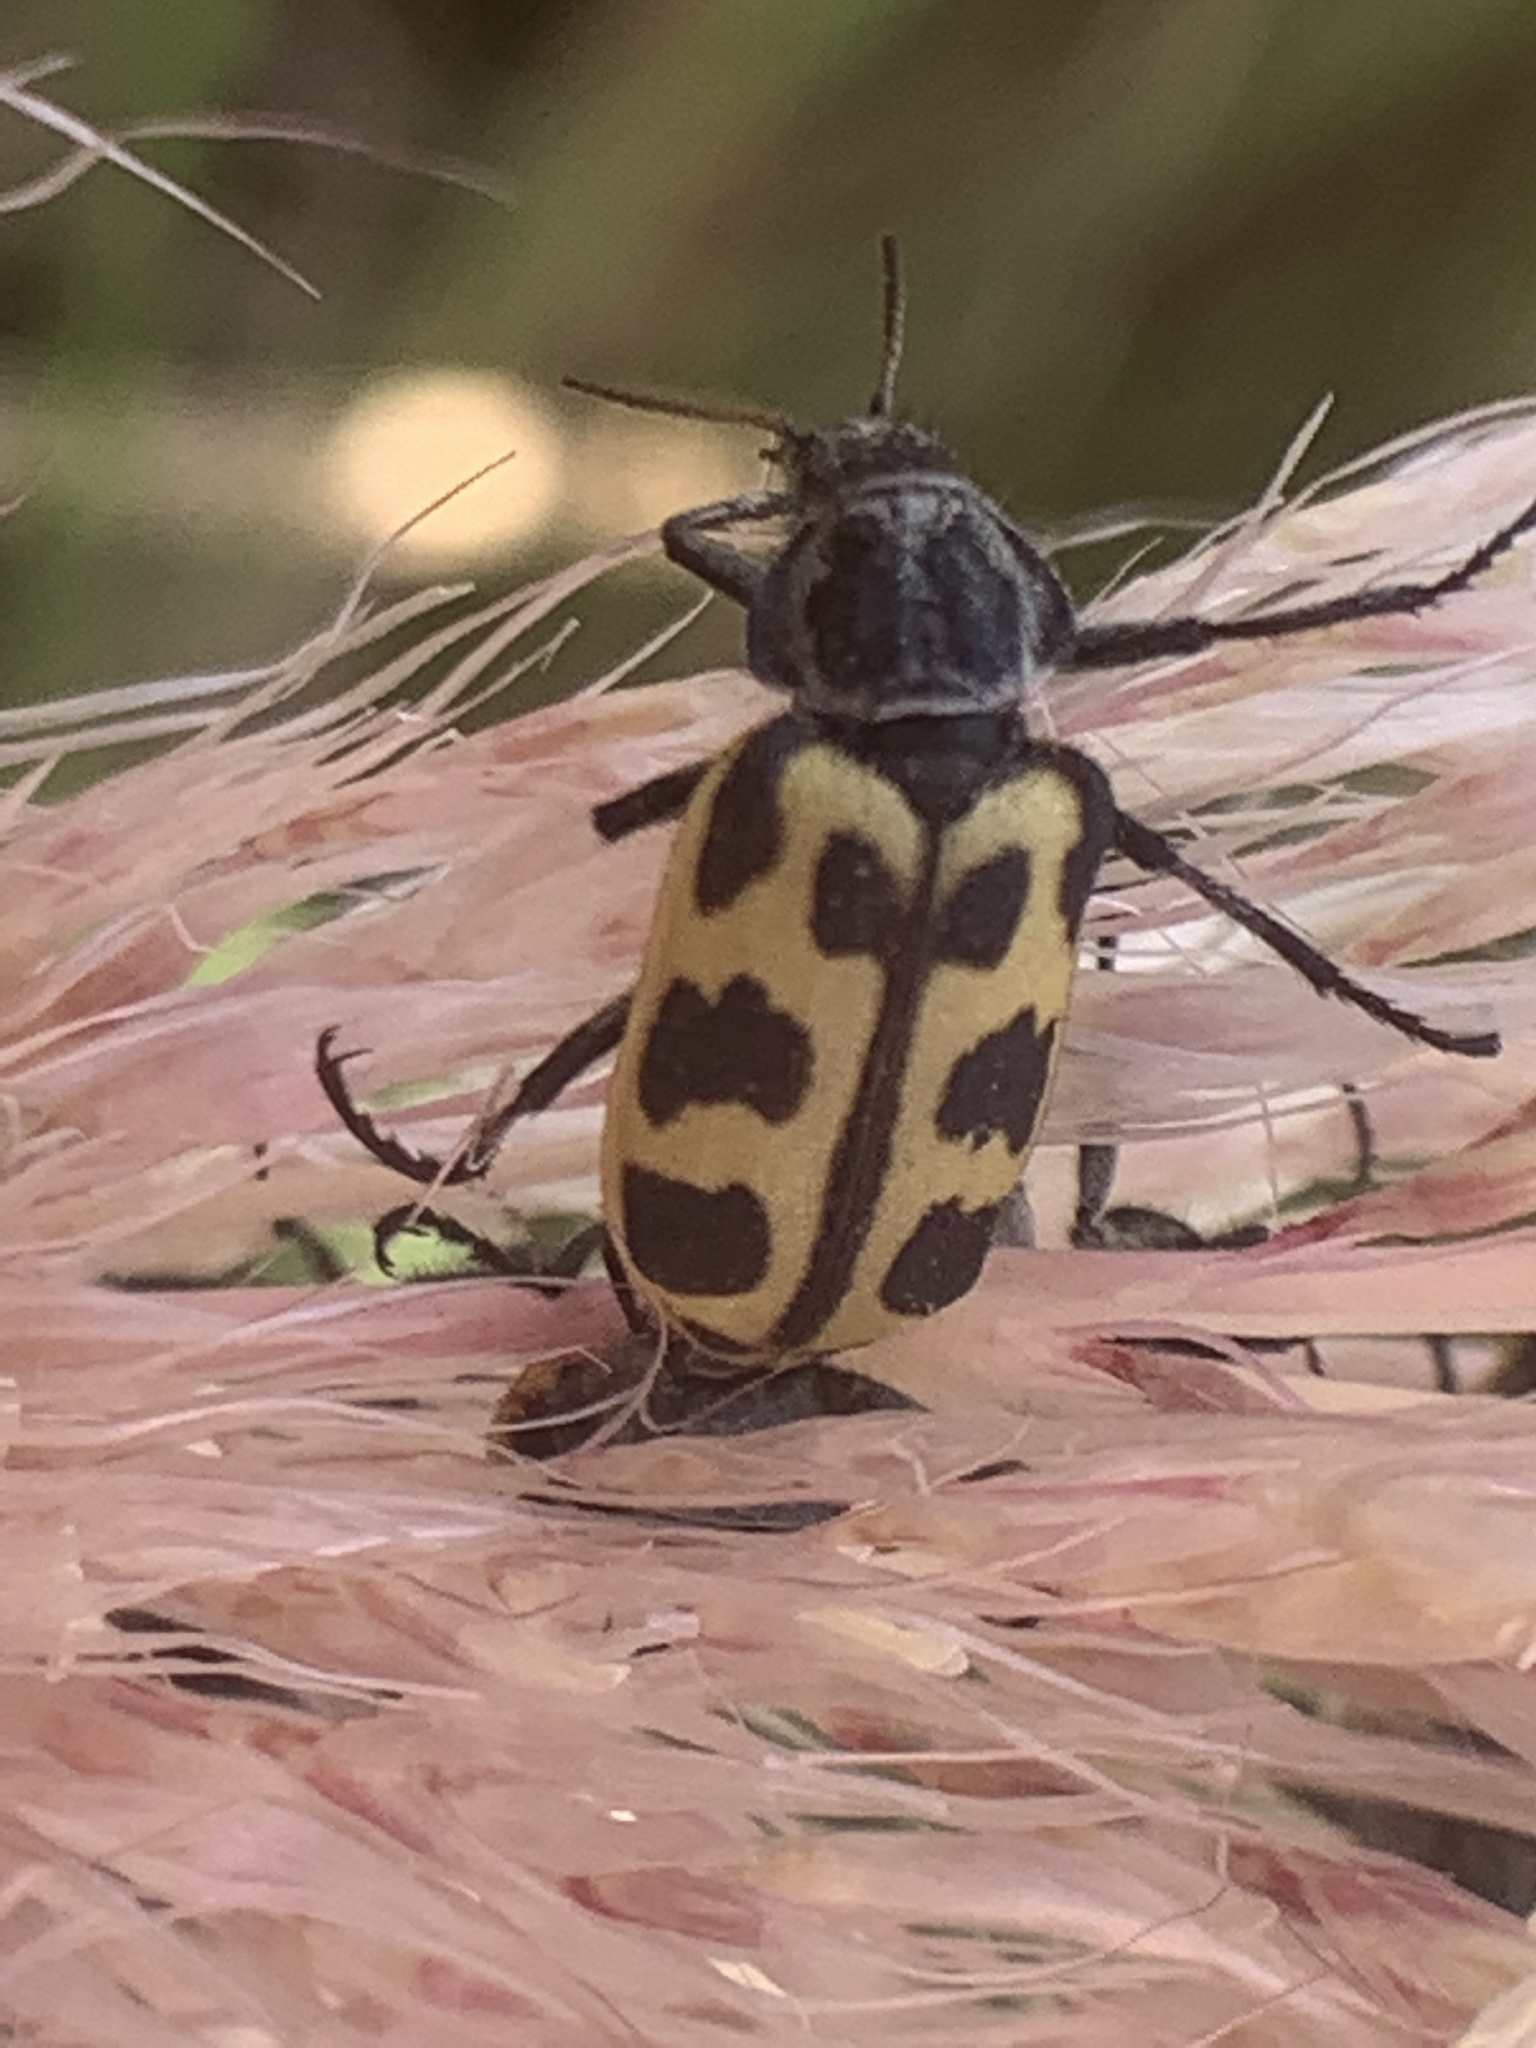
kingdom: Animalia
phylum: Arthropoda
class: Insecta
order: Coleoptera
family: Melyridae
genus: Astylus
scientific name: Astylus atromaculatus
